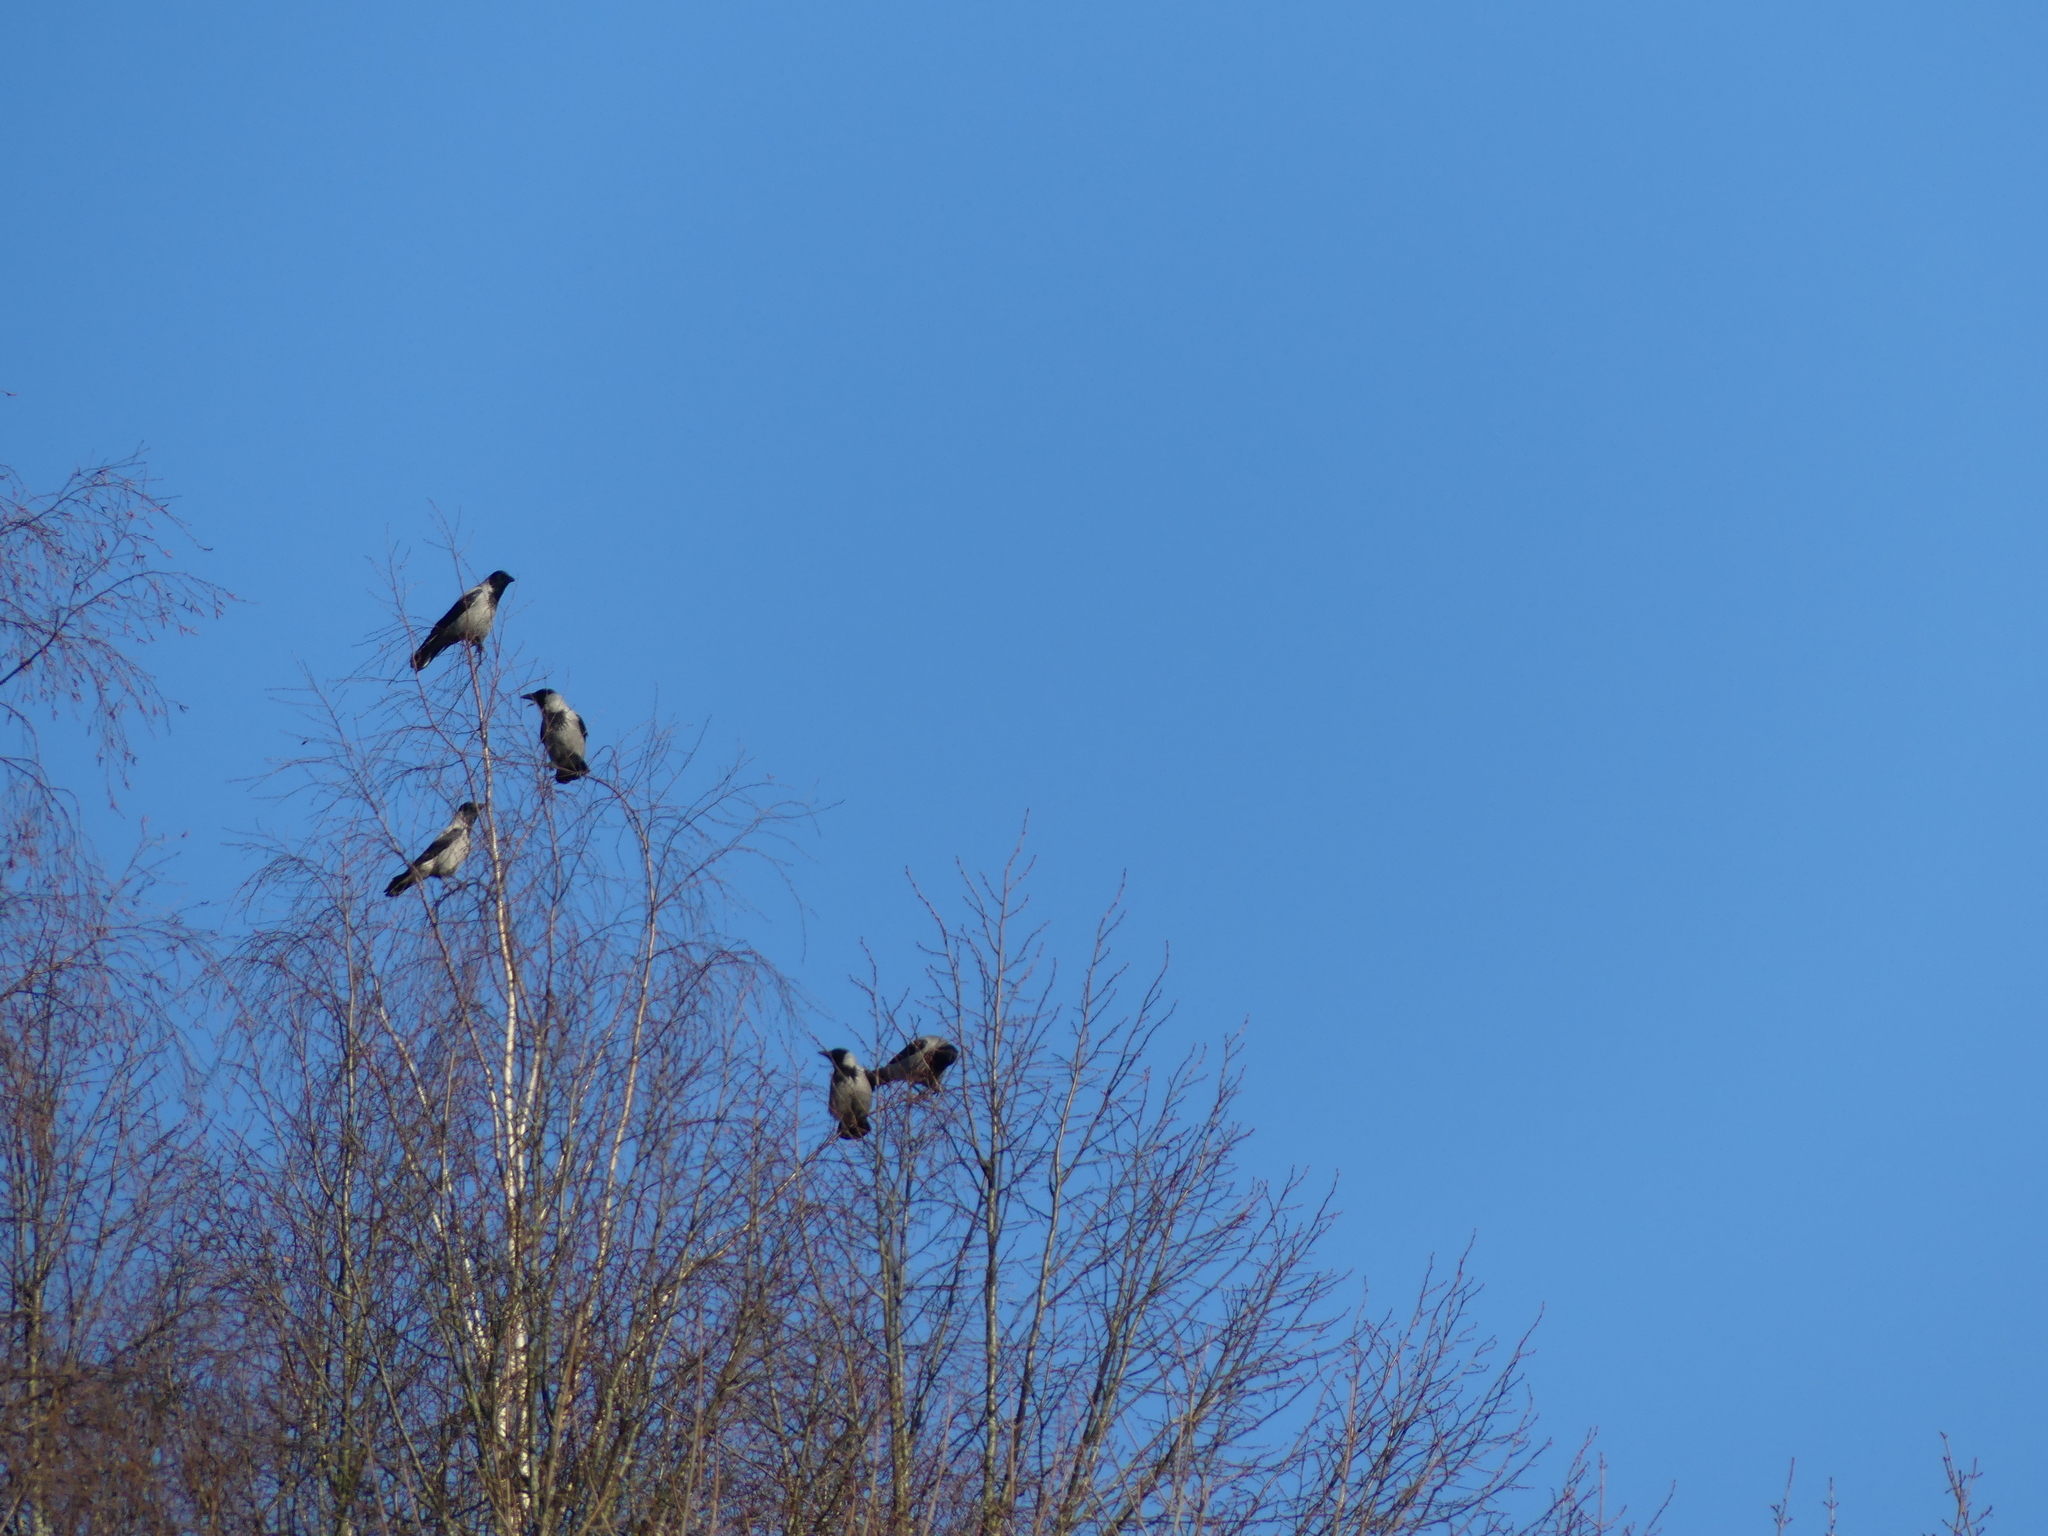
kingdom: Animalia
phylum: Chordata
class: Aves
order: Passeriformes
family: Corvidae
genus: Corvus
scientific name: Corvus cornix
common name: Hooded crow
